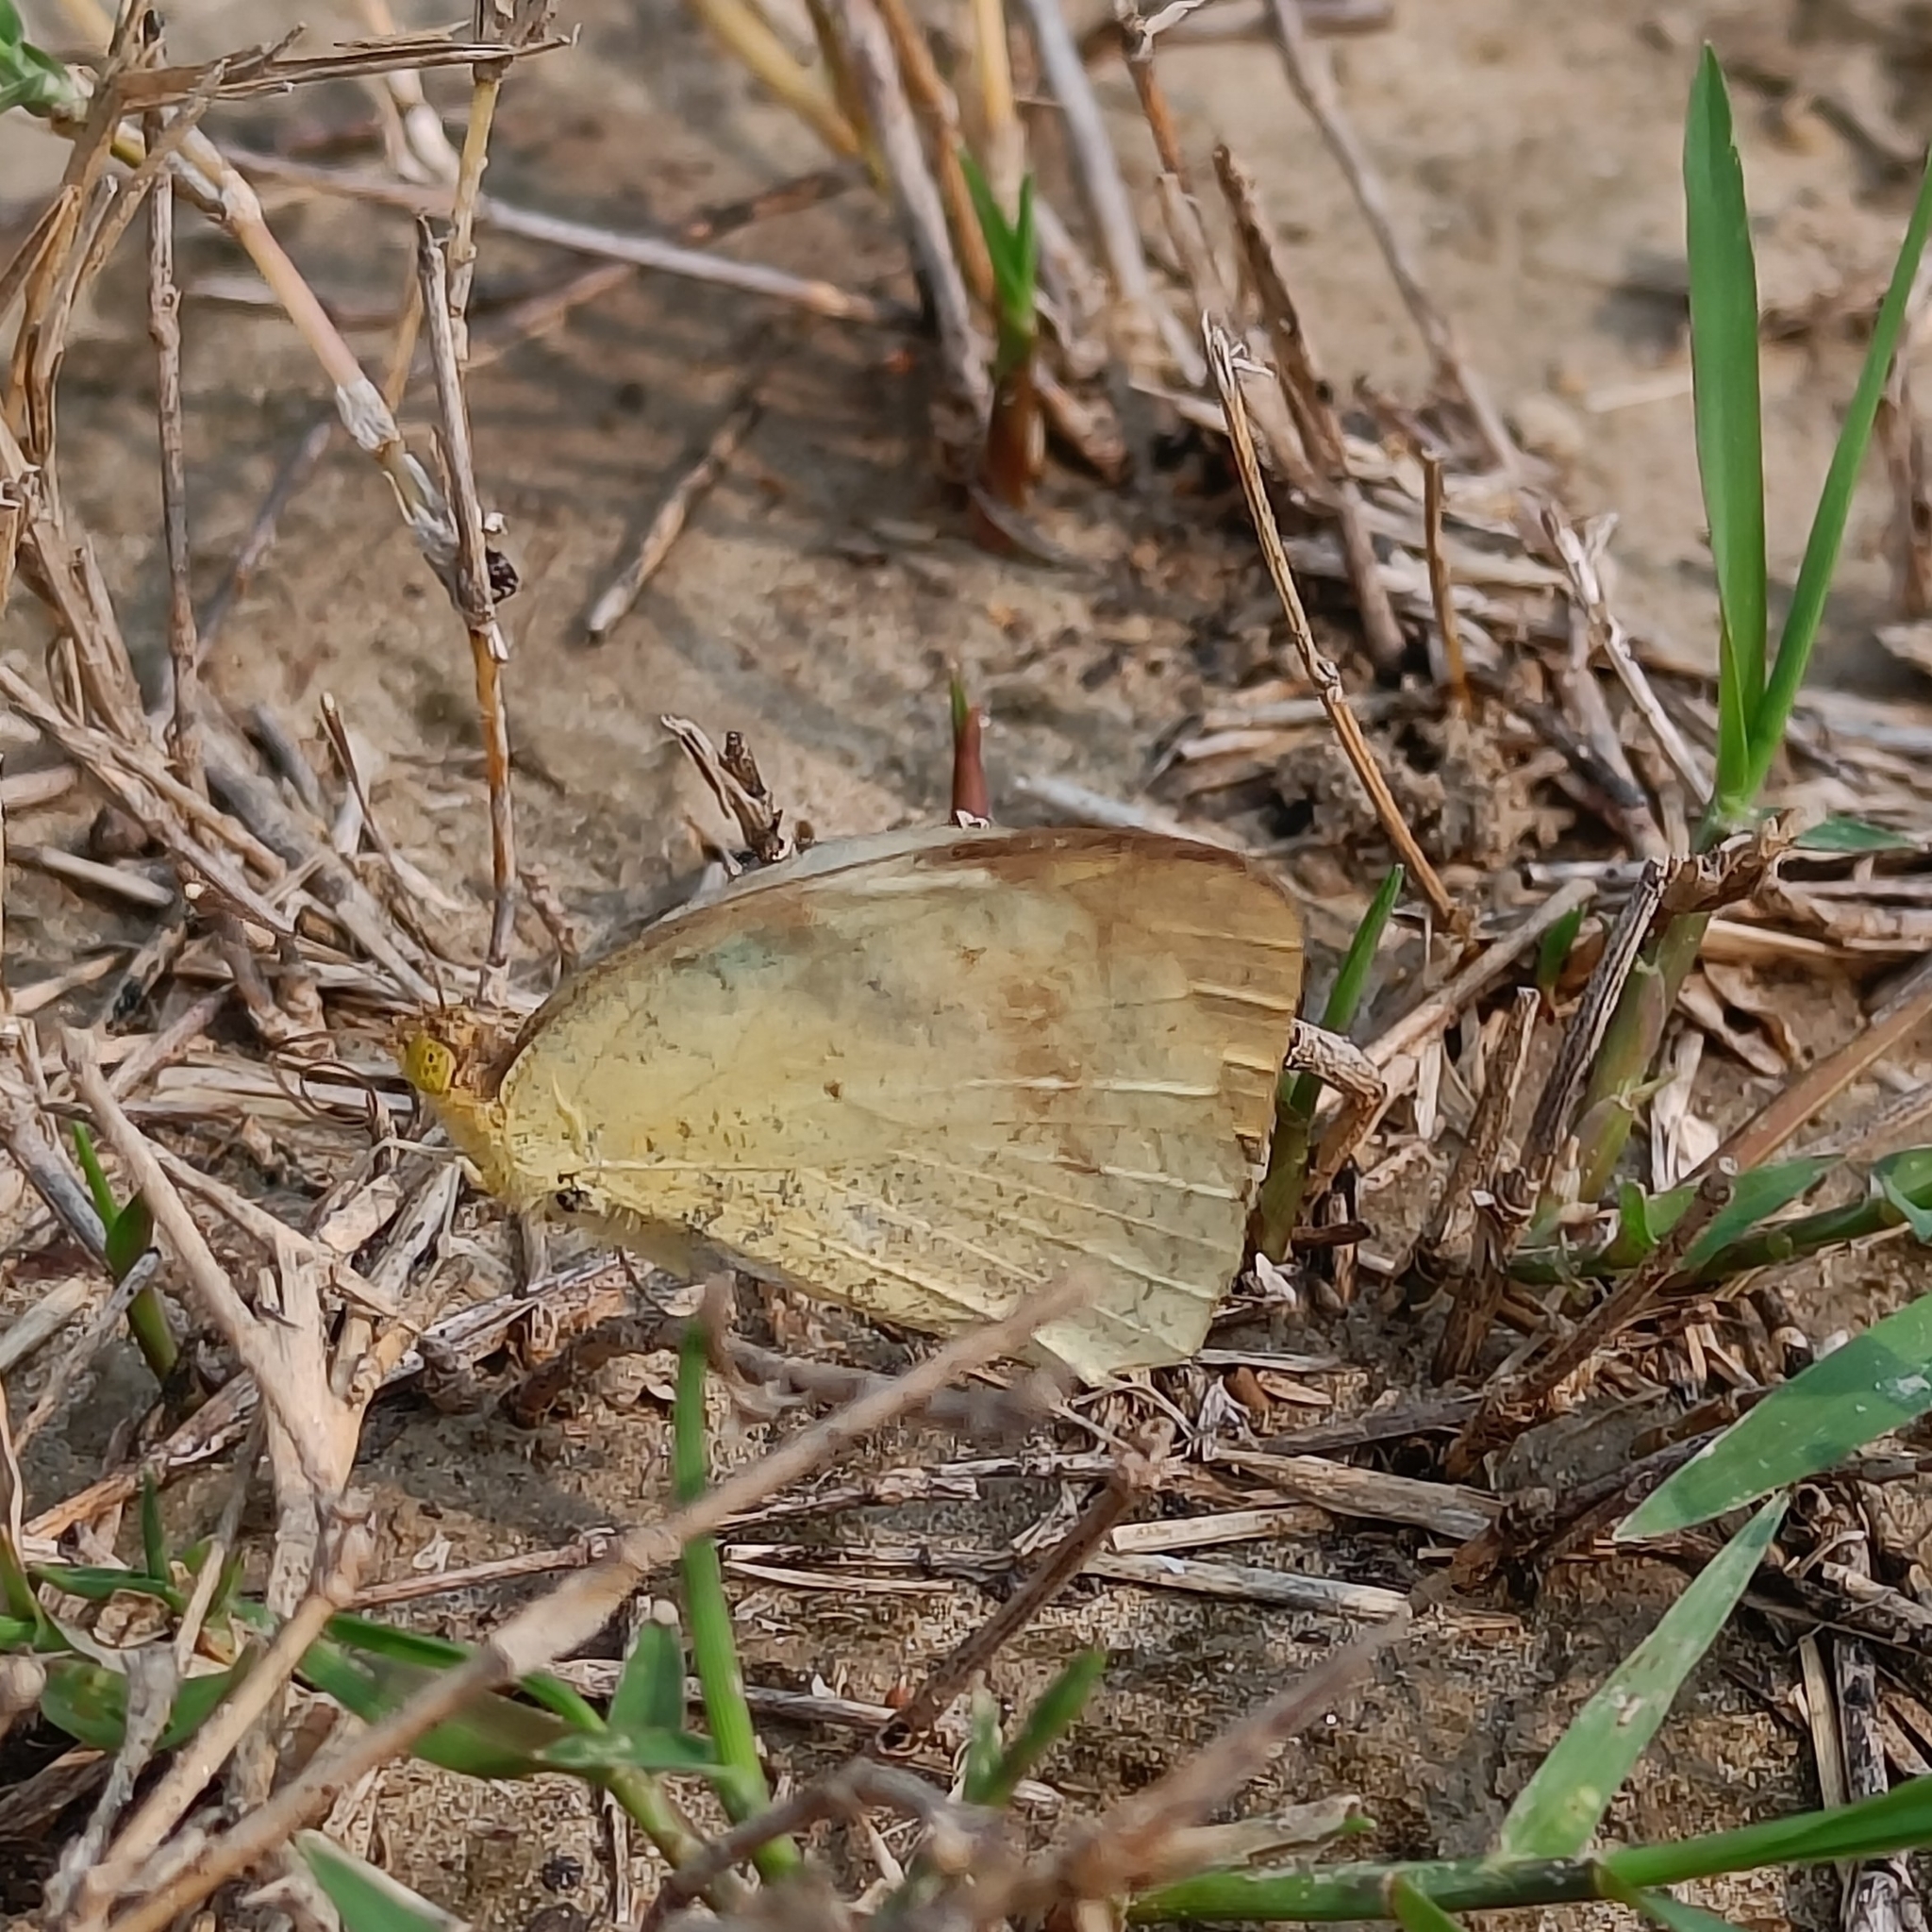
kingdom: Animalia
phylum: Arthropoda
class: Insecta
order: Lepidoptera
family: Pieridae
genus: Ixias
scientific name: Ixias marianne
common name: White orange tip
